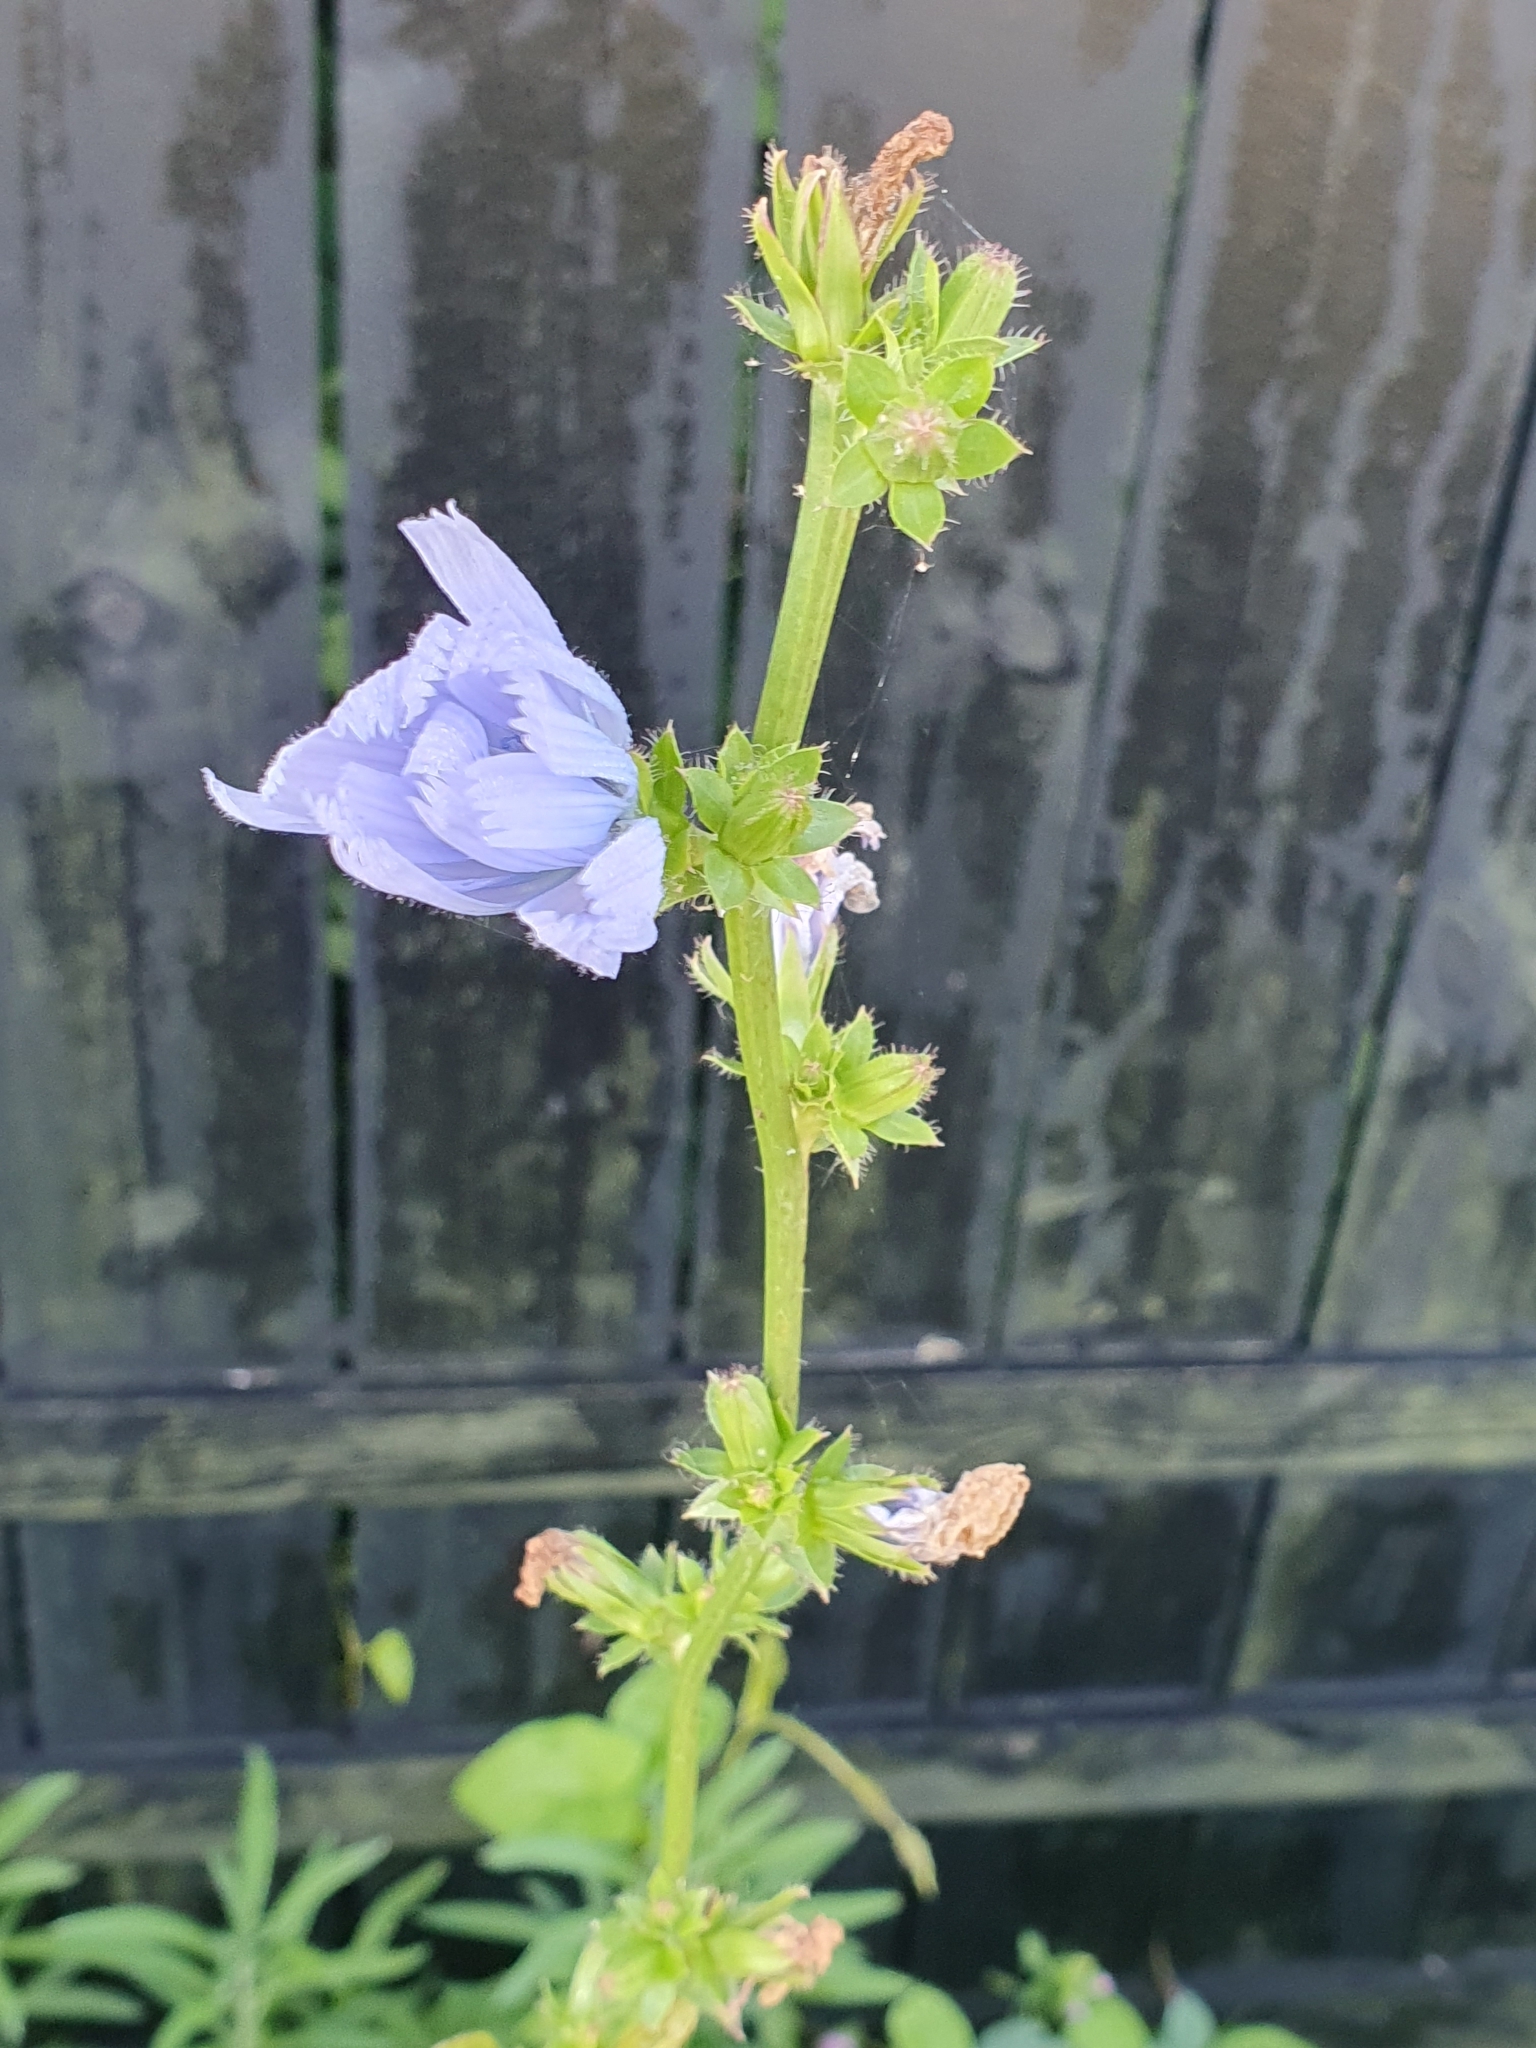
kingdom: Plantae
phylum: Tracheophyta
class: Magnoliopsida
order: Asterales
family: Asteraceae
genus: Cichorium
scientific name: Cichorium intybus
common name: Chicory
